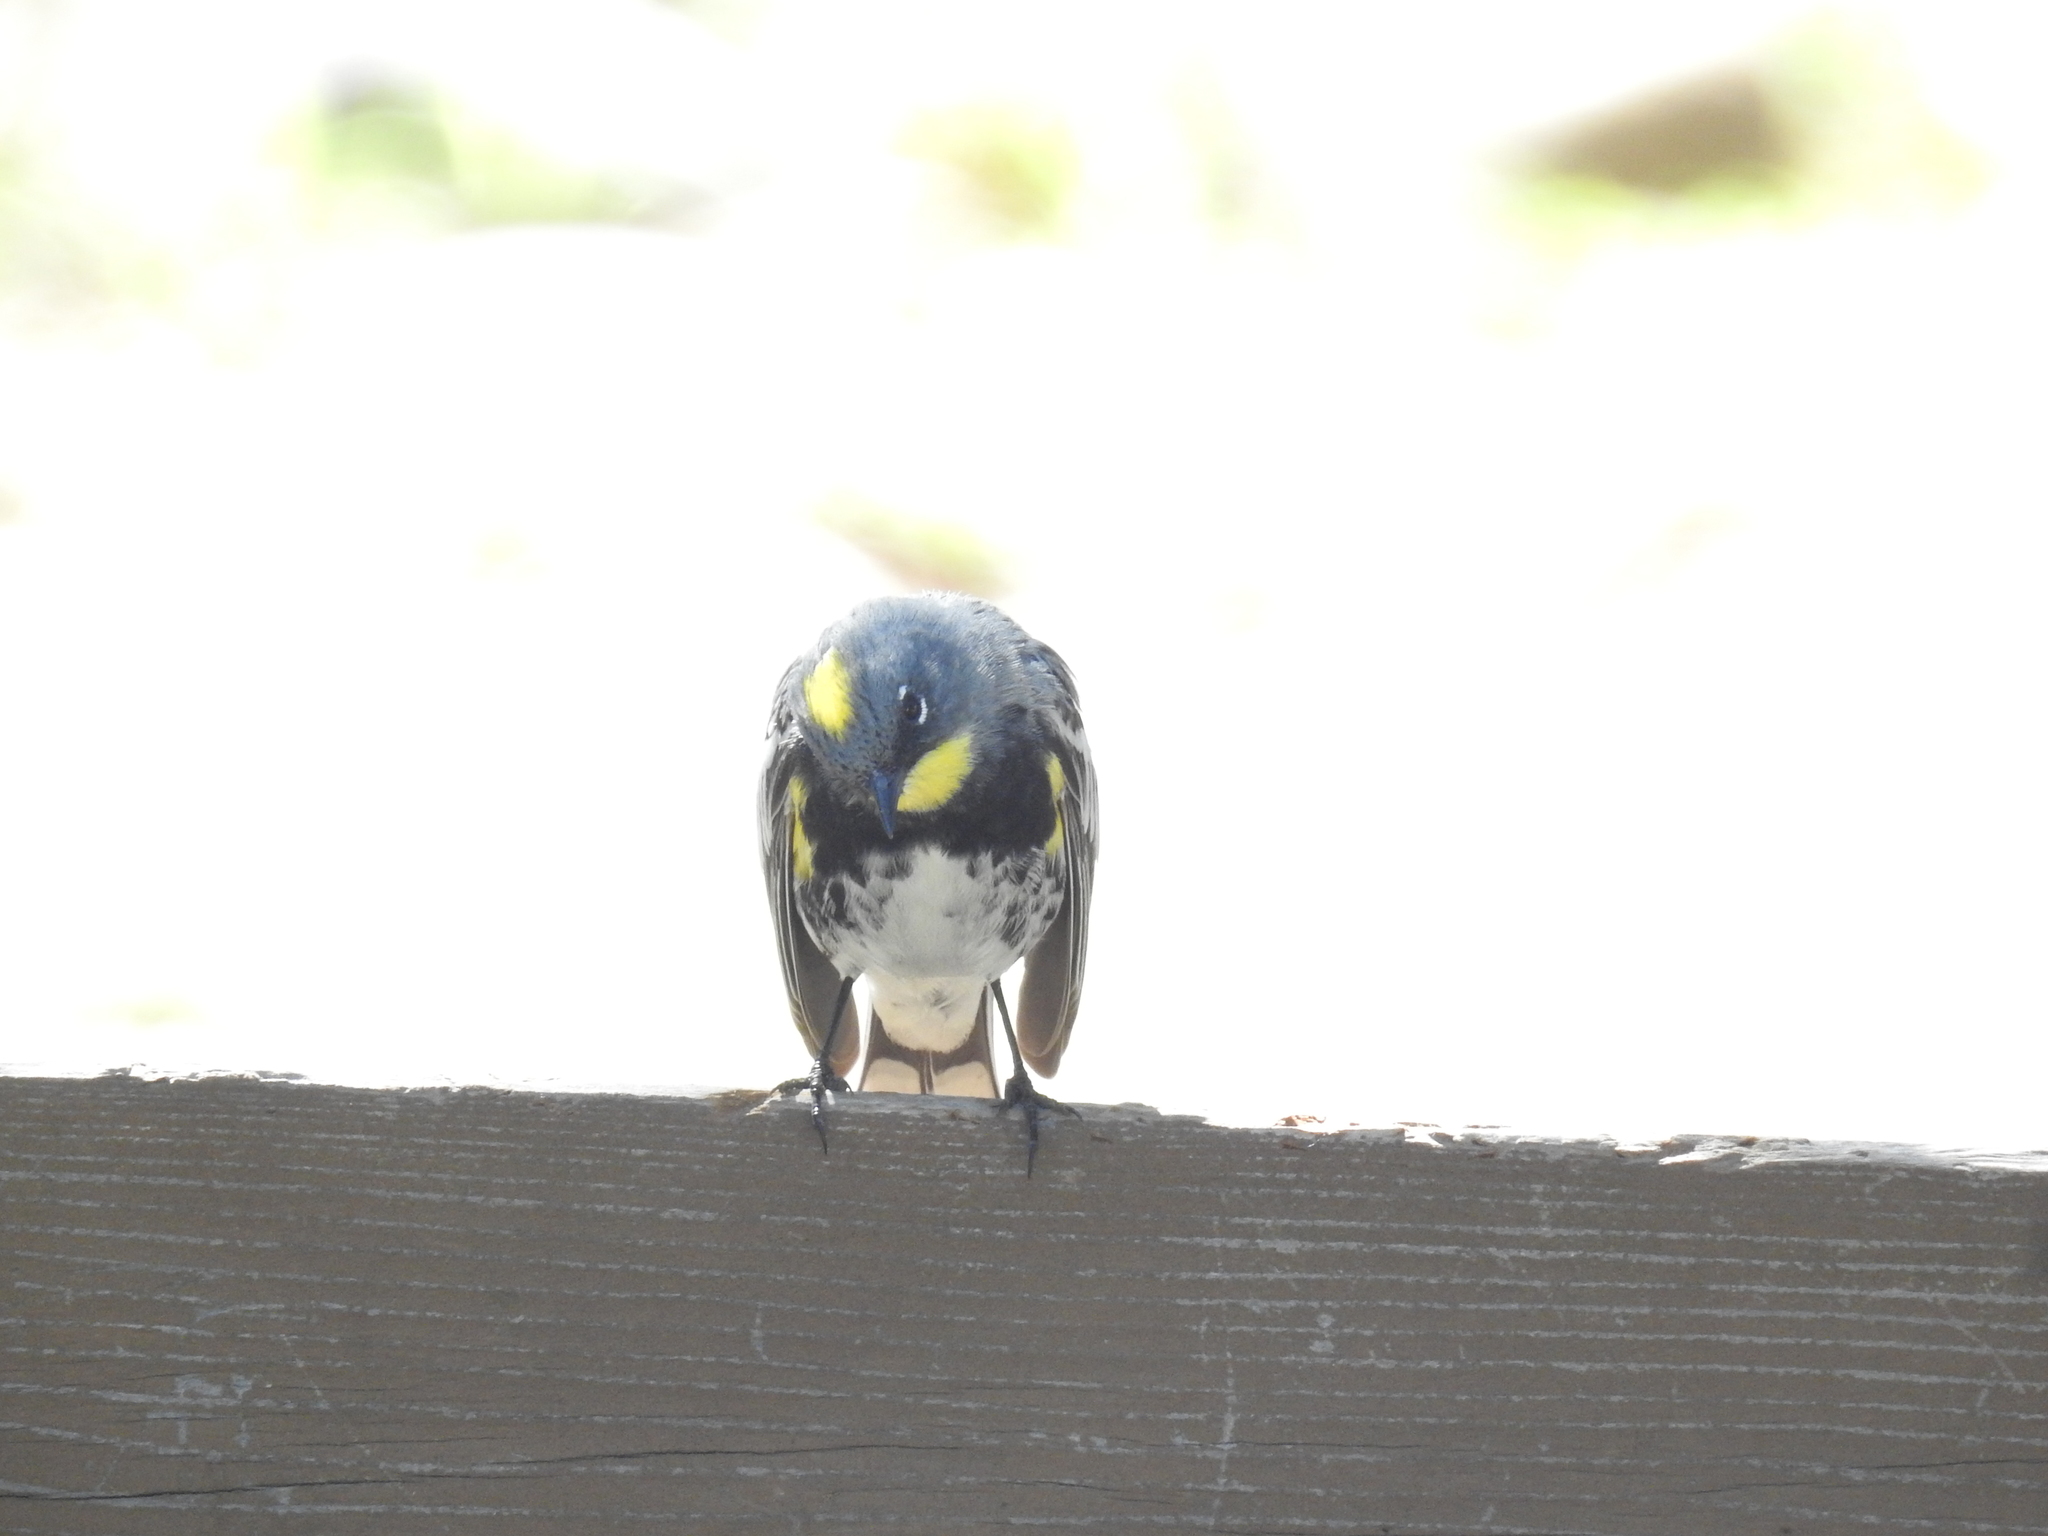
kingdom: Animalia
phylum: Chordata
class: Aves
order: Passeriformes
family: Parulidae
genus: Setophaga
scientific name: Setophaga coronata
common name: Myrtle warbler
